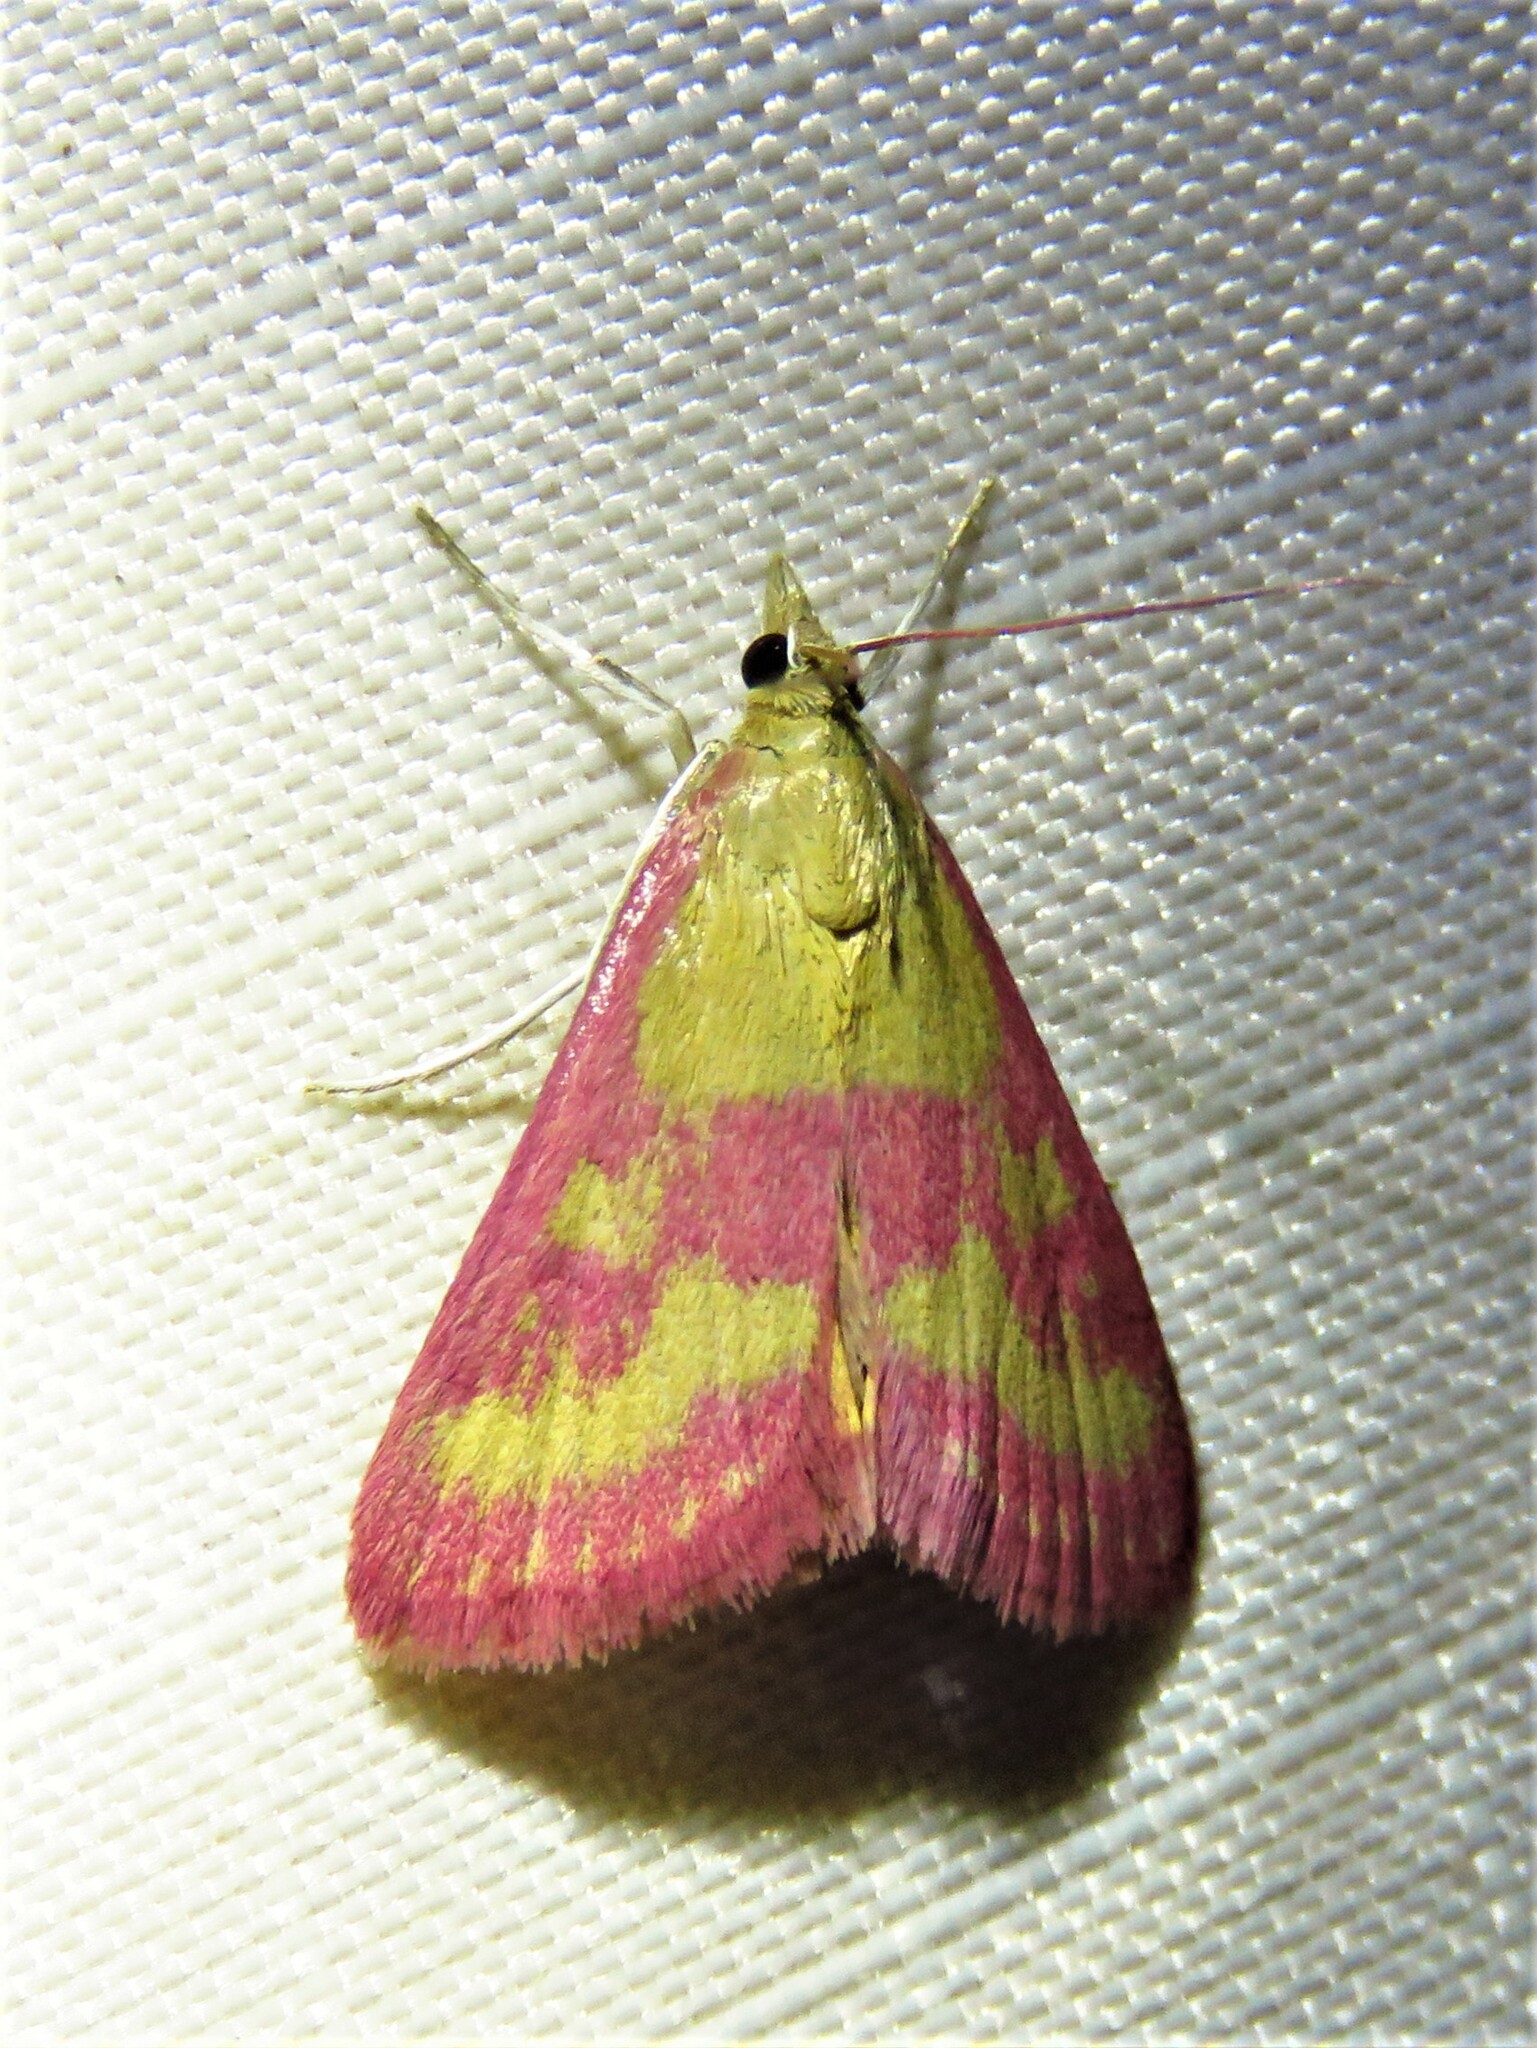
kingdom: Animalia
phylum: Arthropoda
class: Insecta
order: Lepidoptera
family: Crambidae
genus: Pyrausta
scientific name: Pyrausta laticlavia
